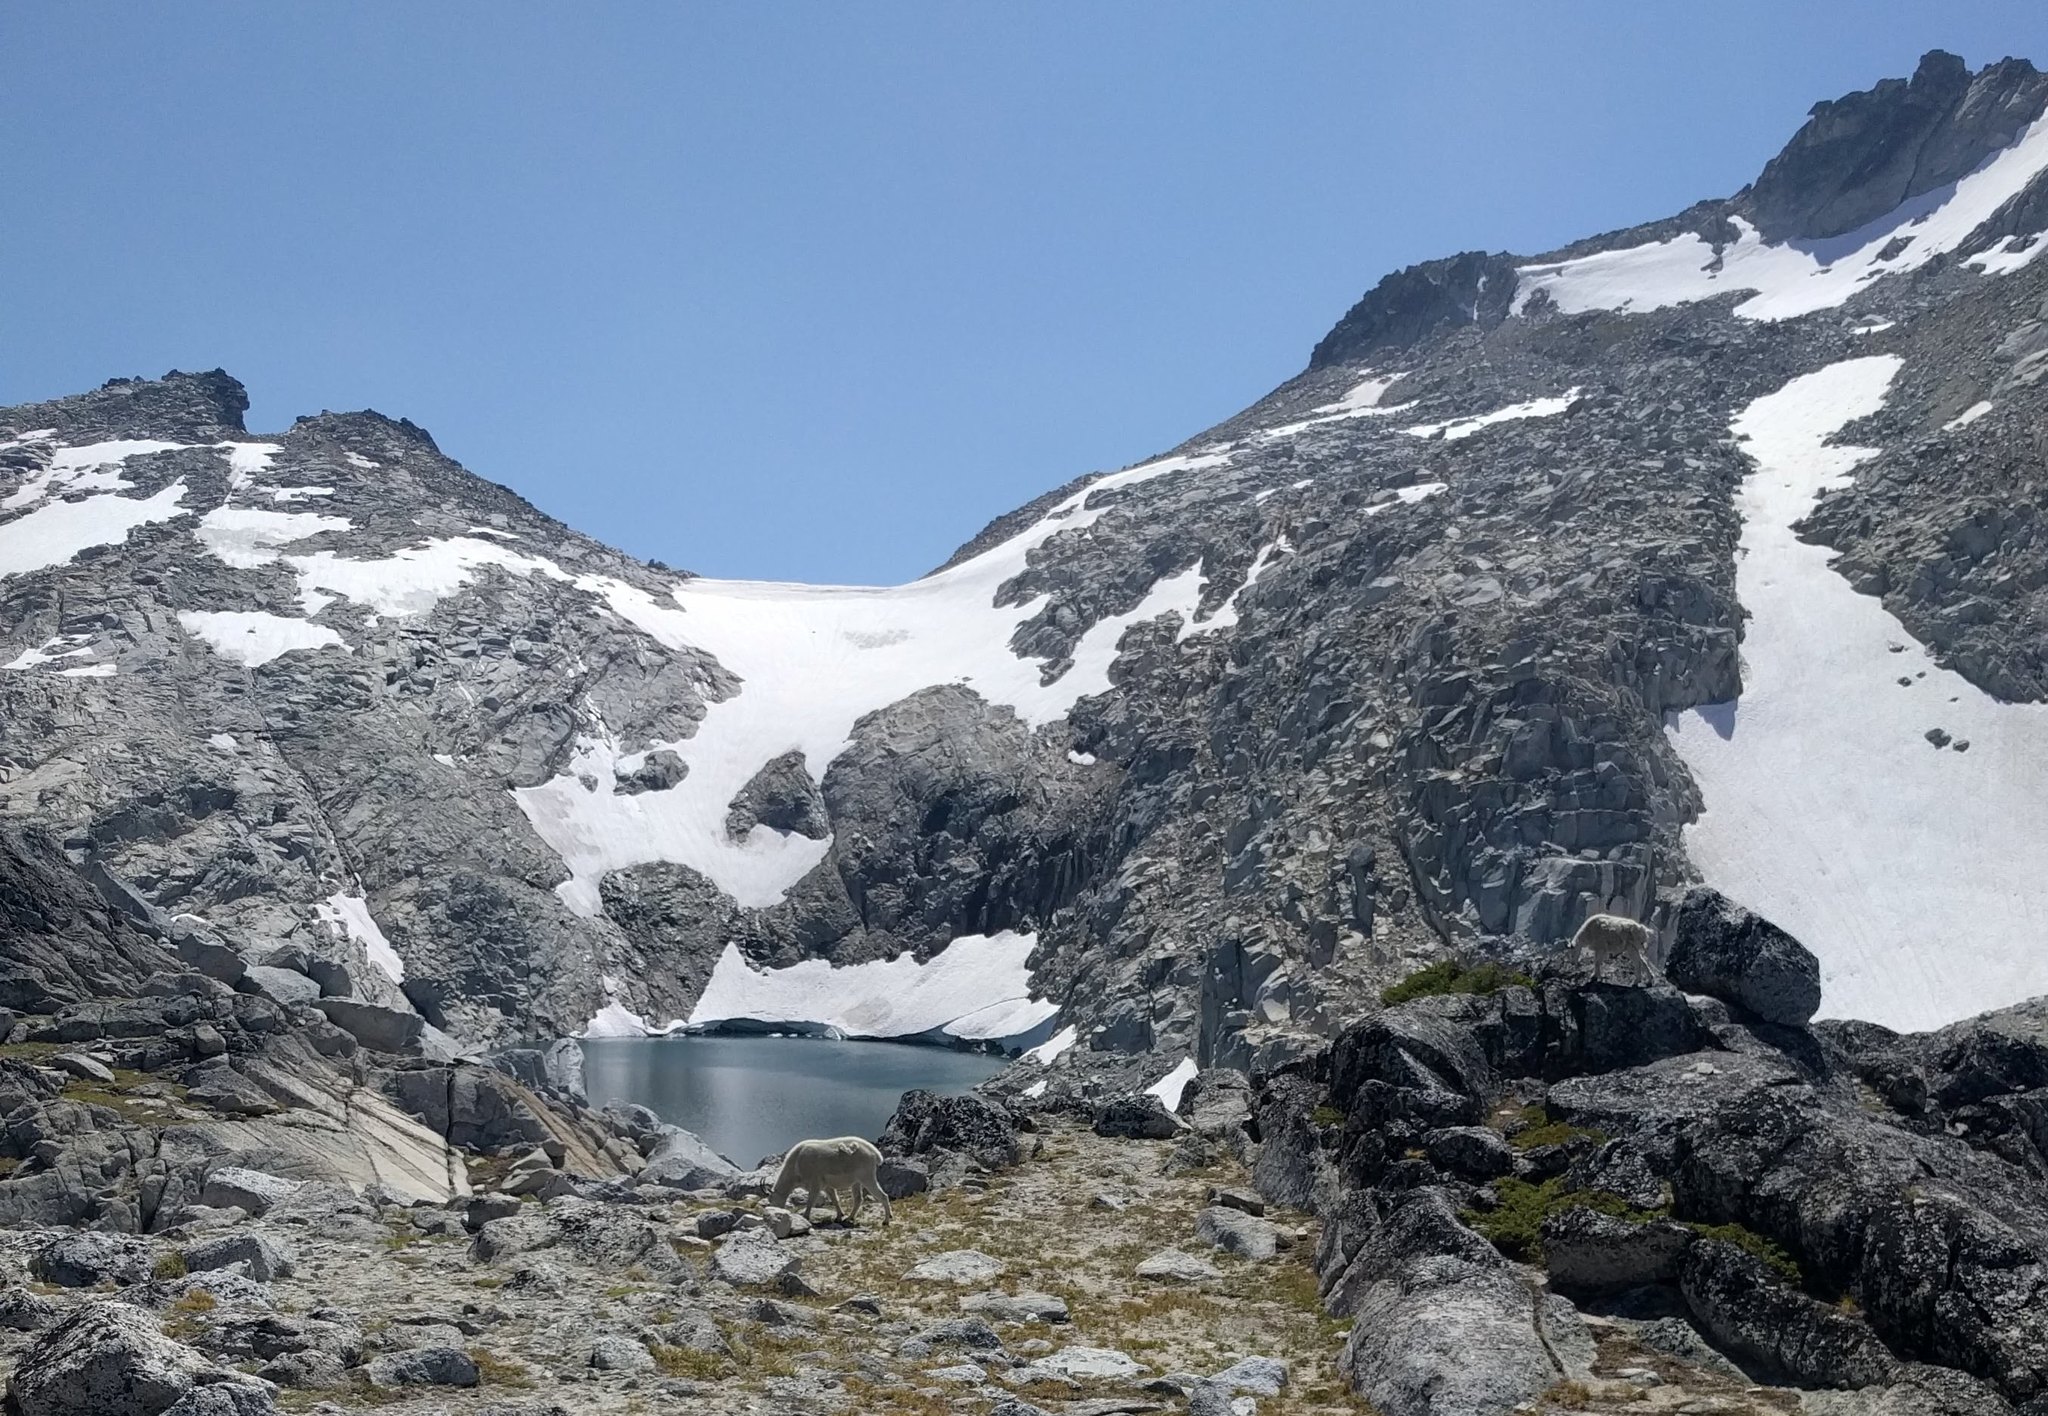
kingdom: Animalia
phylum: Chordata
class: Mammalia
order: Artiodactyla
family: Bovidae
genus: Oreamnos
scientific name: Oreamnos americanus
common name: Mountain goat
